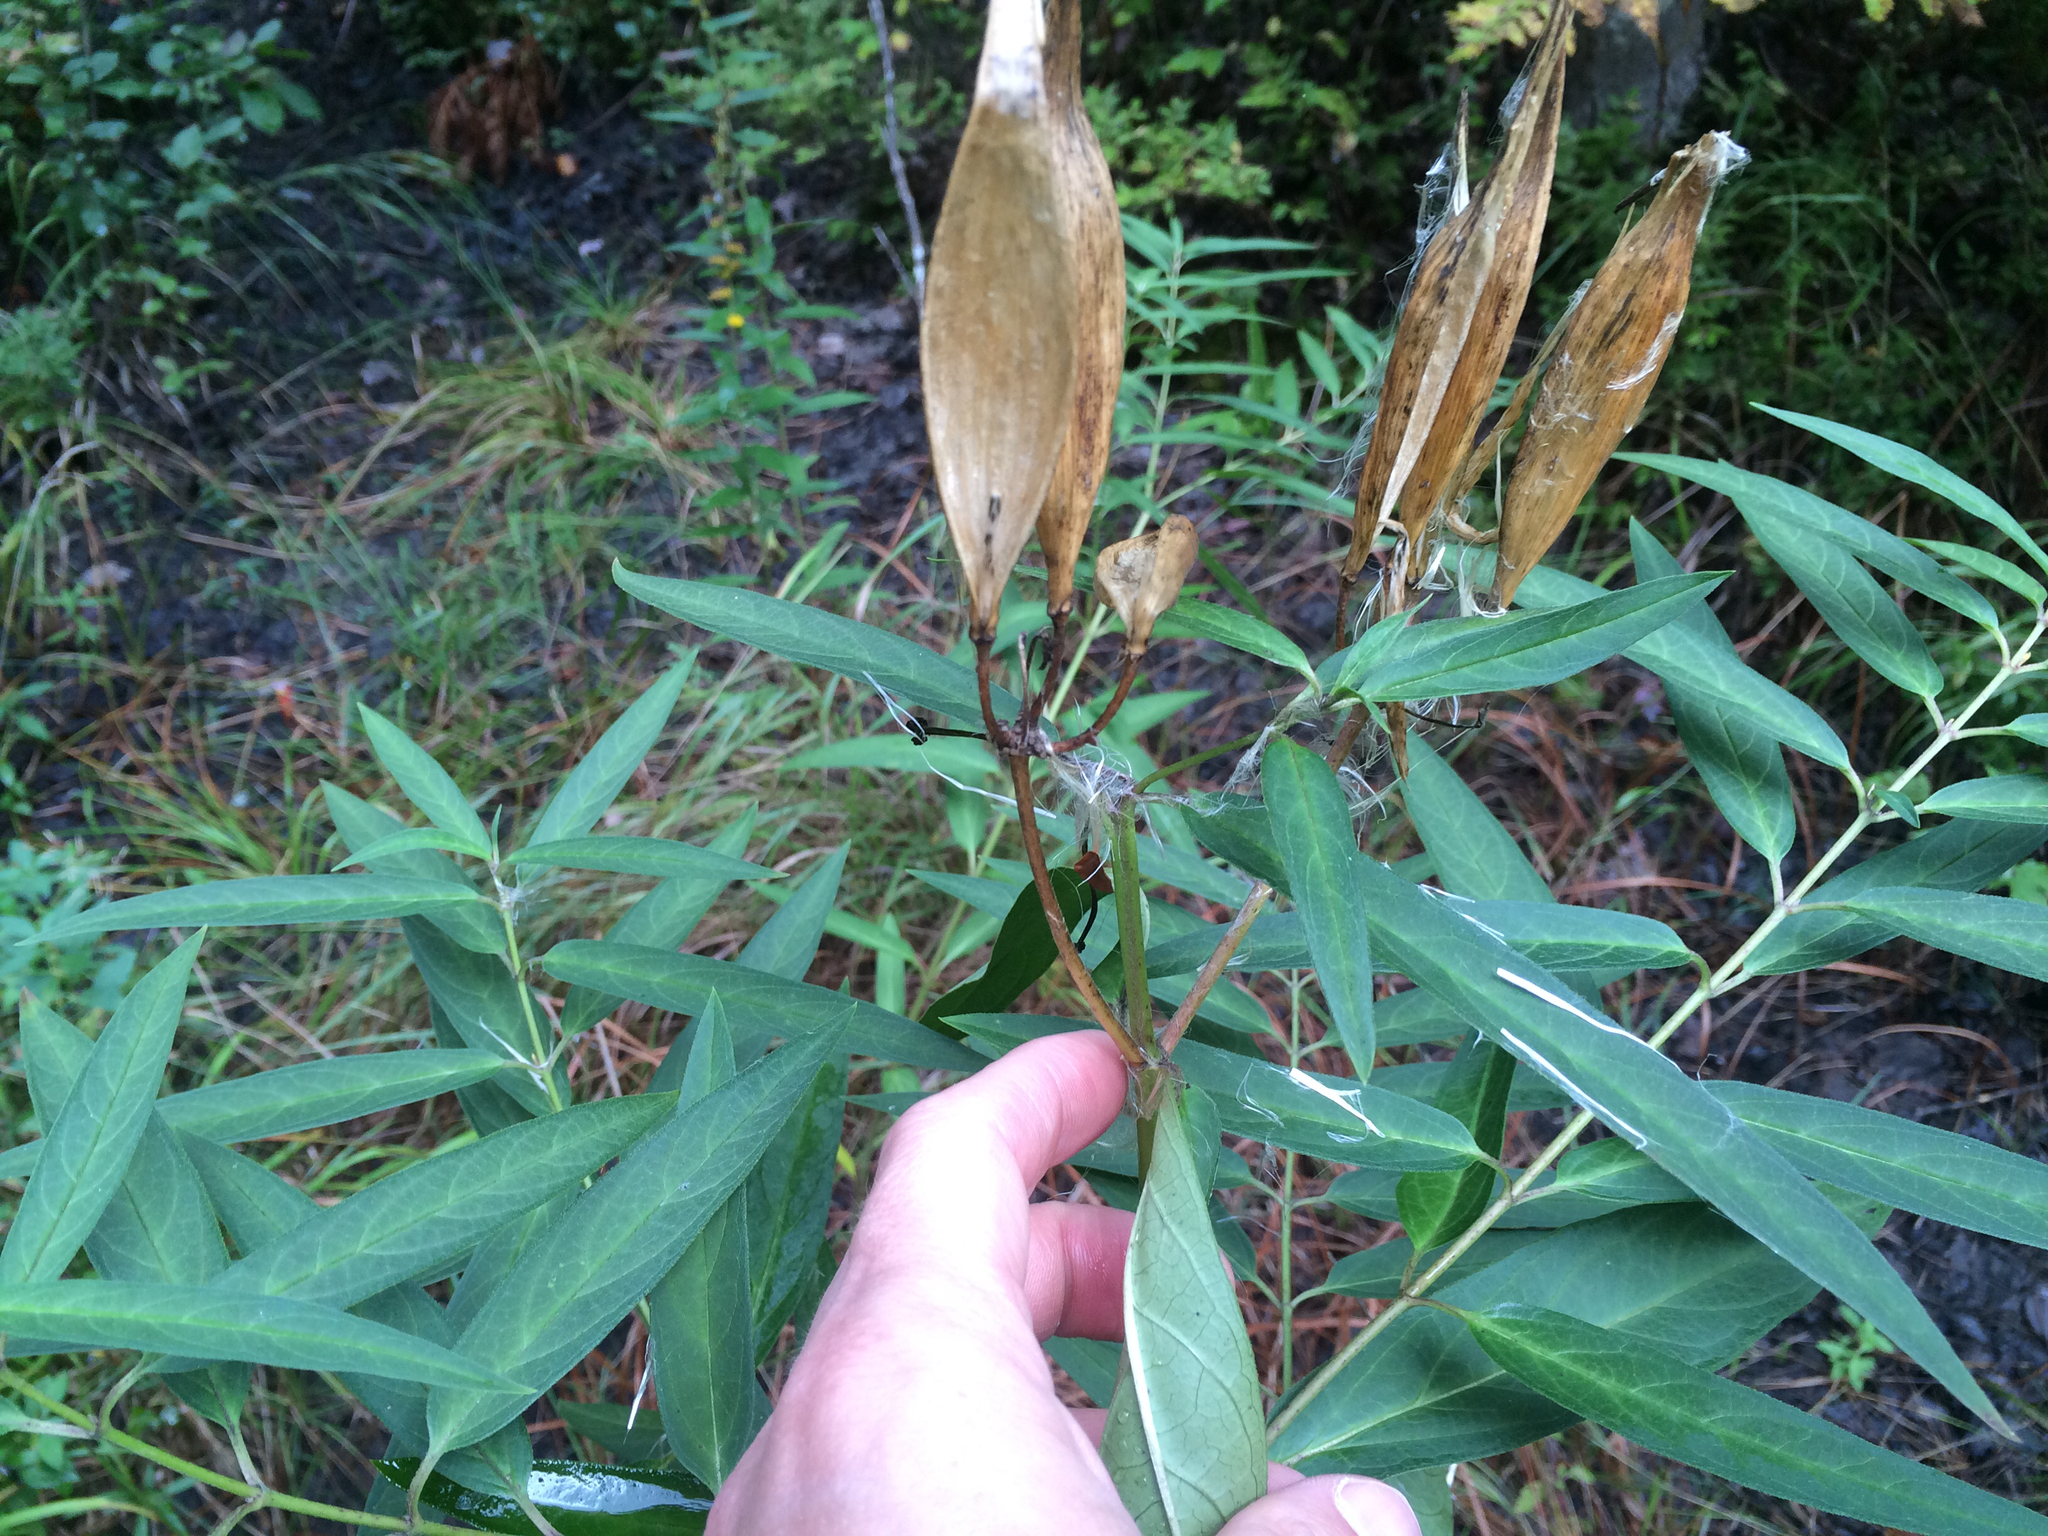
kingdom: Plantae
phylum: Tracheophyta
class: Magnoliopsida
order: Gentianales
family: Apocynaceae
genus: Asclepias
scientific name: Asclepias incarnata
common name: Swamp milkweed
